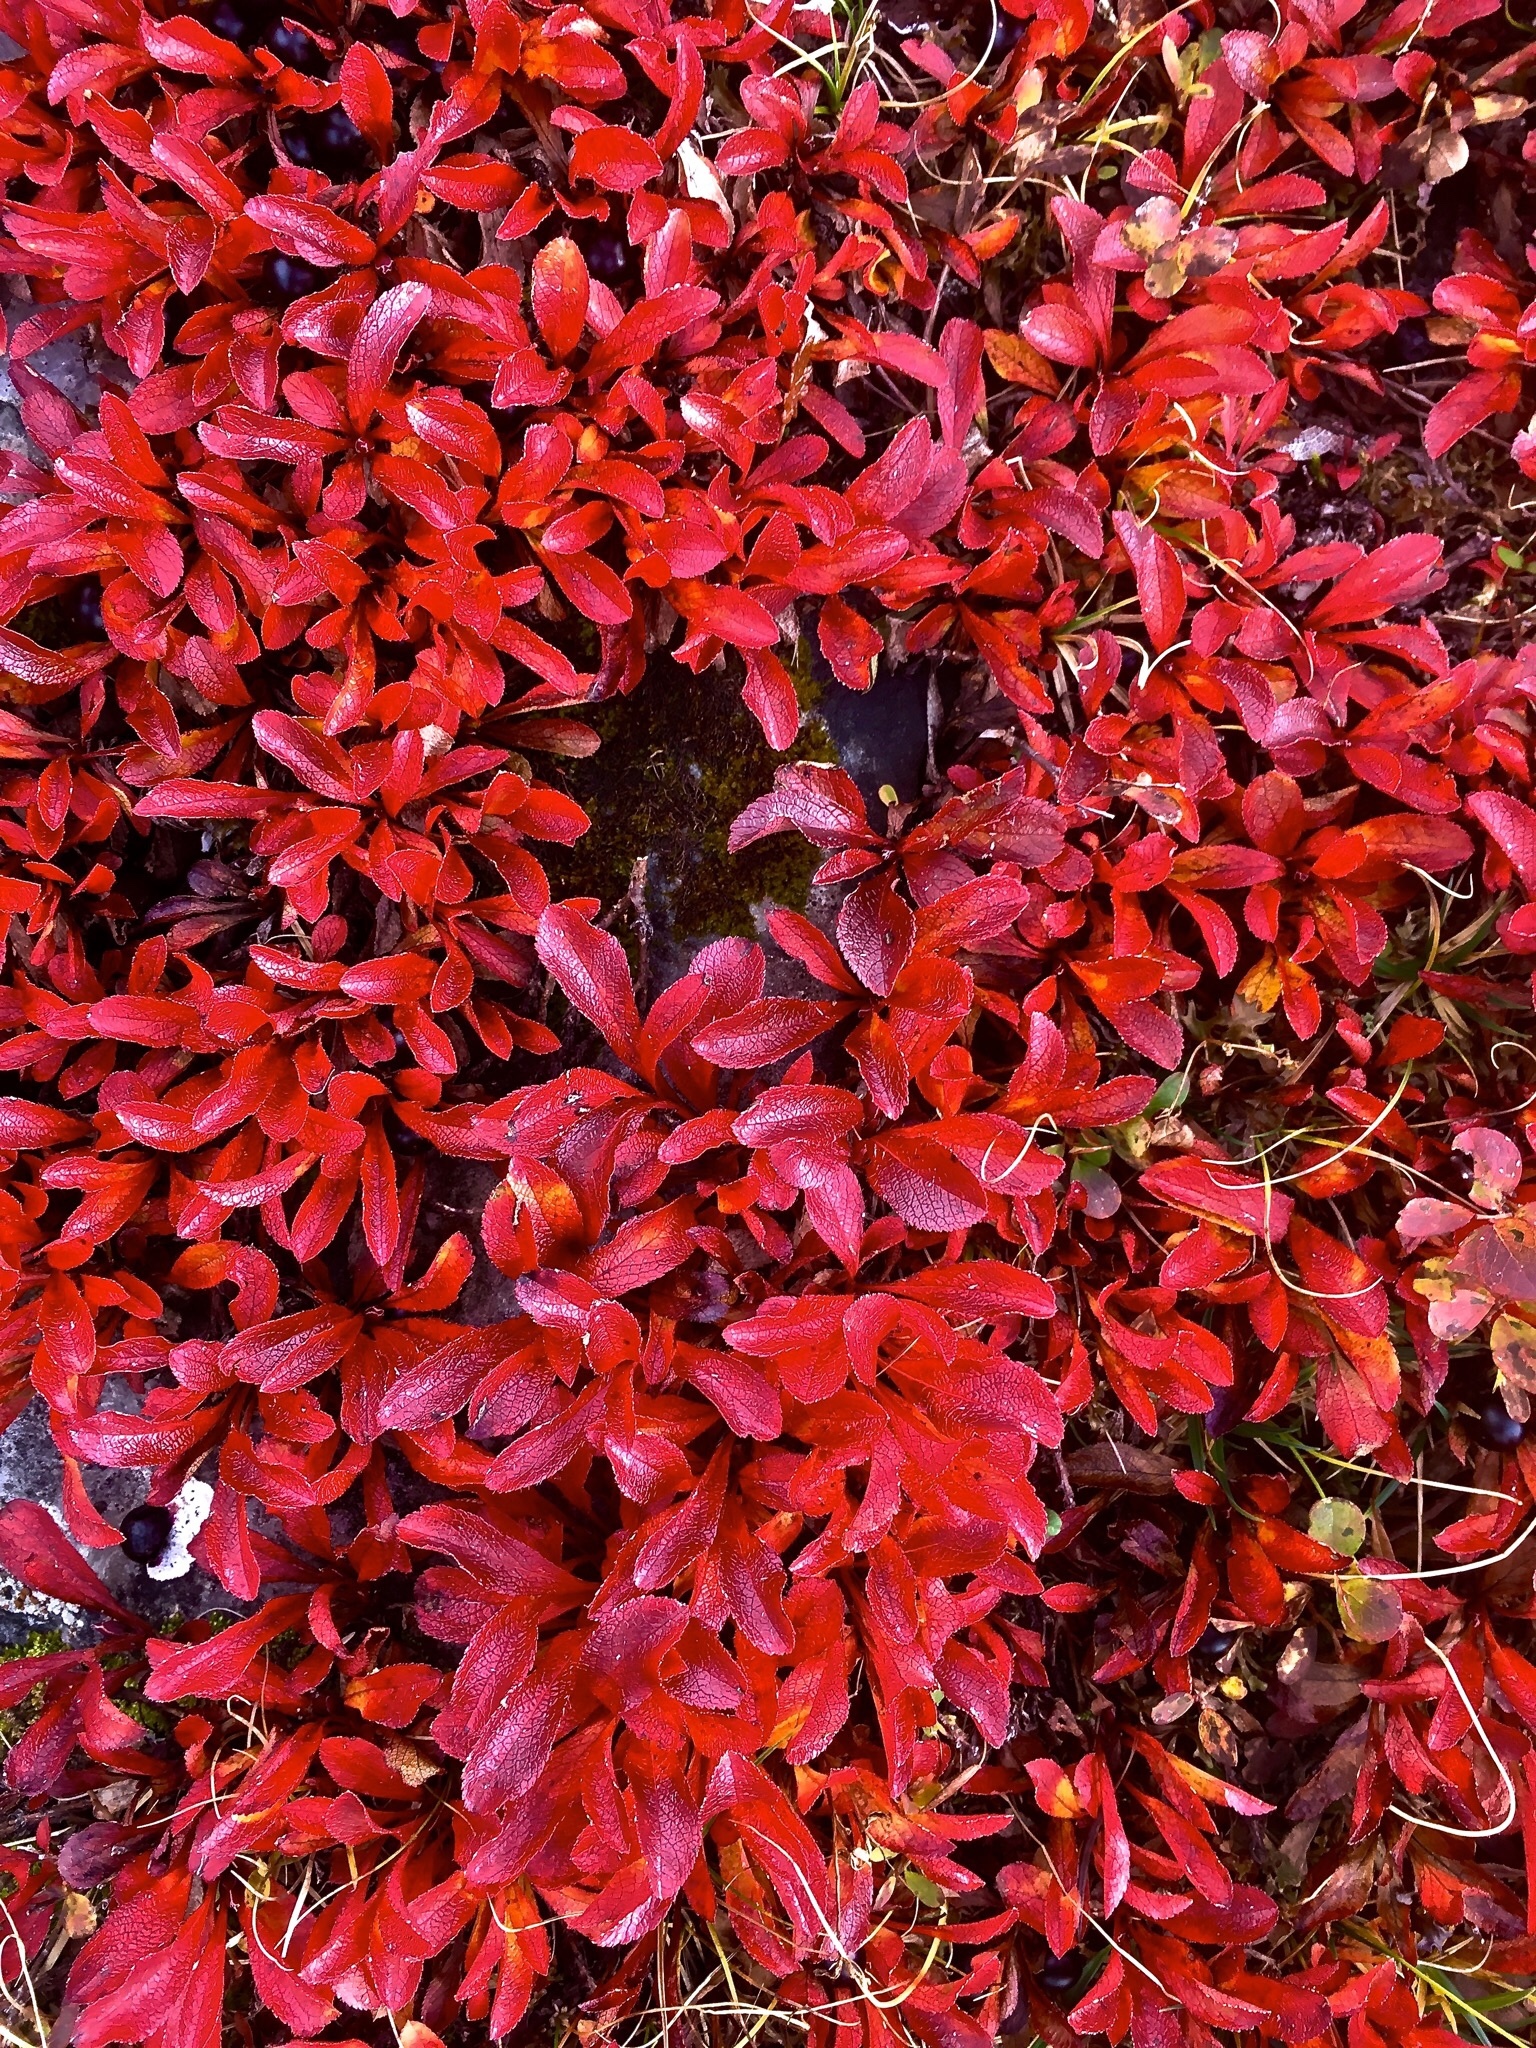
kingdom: Plantae
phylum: Tracheophyta
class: Magnoliopsida
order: Ericales
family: Ericaceae
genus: Arctostaphylos
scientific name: Arctostaphylos alpinus
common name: Alpine bearberry
